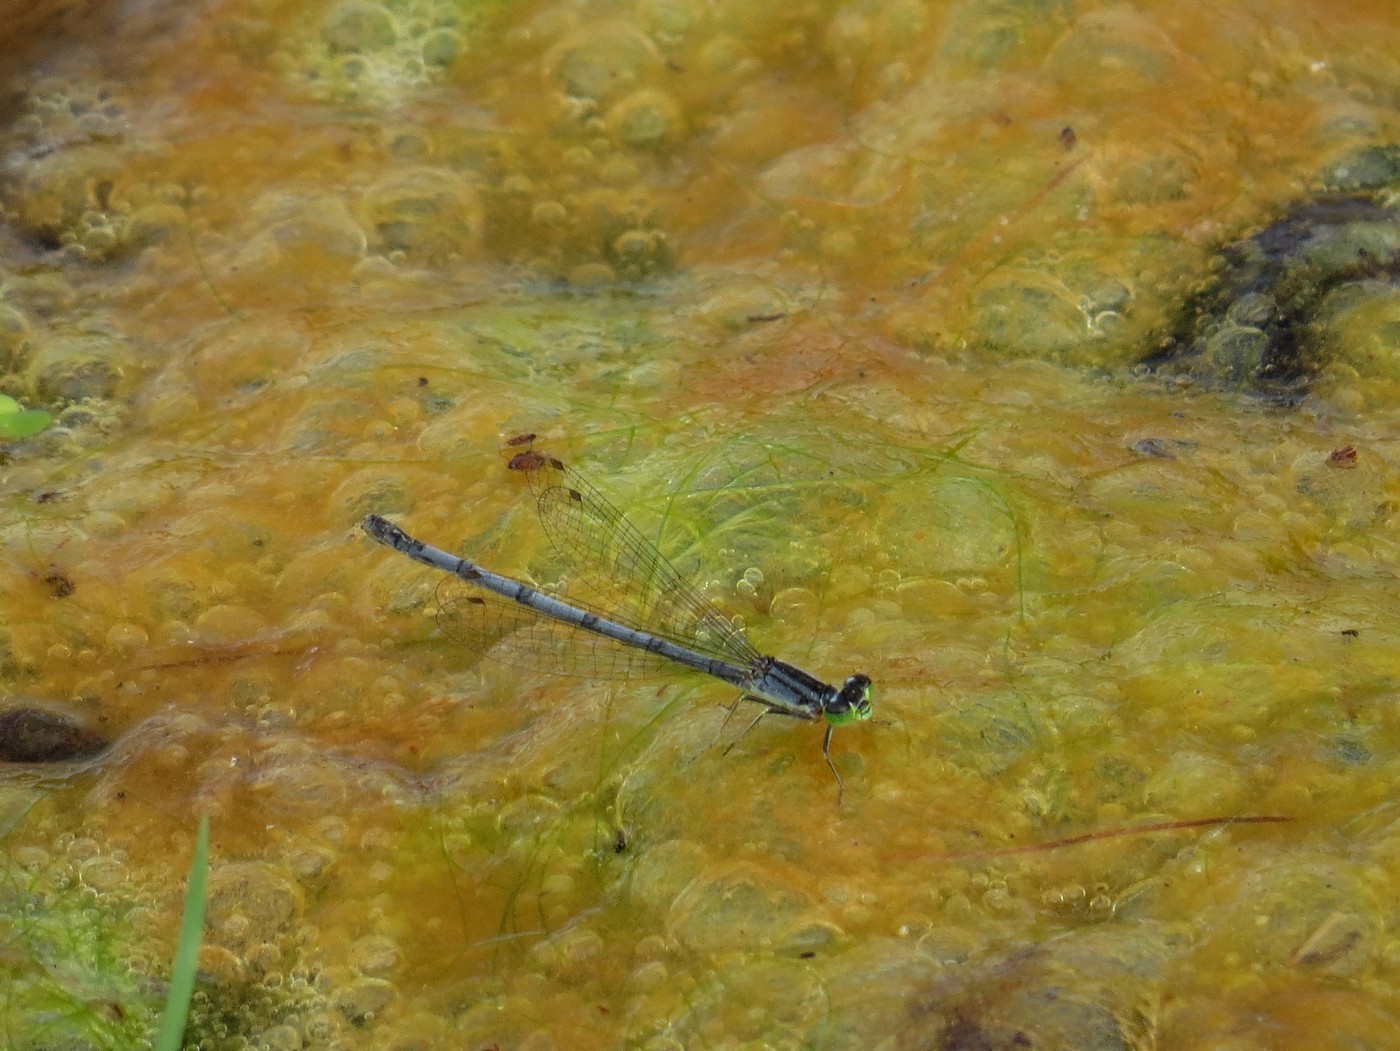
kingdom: Animalia
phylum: Arthropoda
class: Insecta
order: Odonata
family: Coenagrionidae
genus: Ischnura
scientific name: Ischnura verticalis
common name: Eastern forktail
